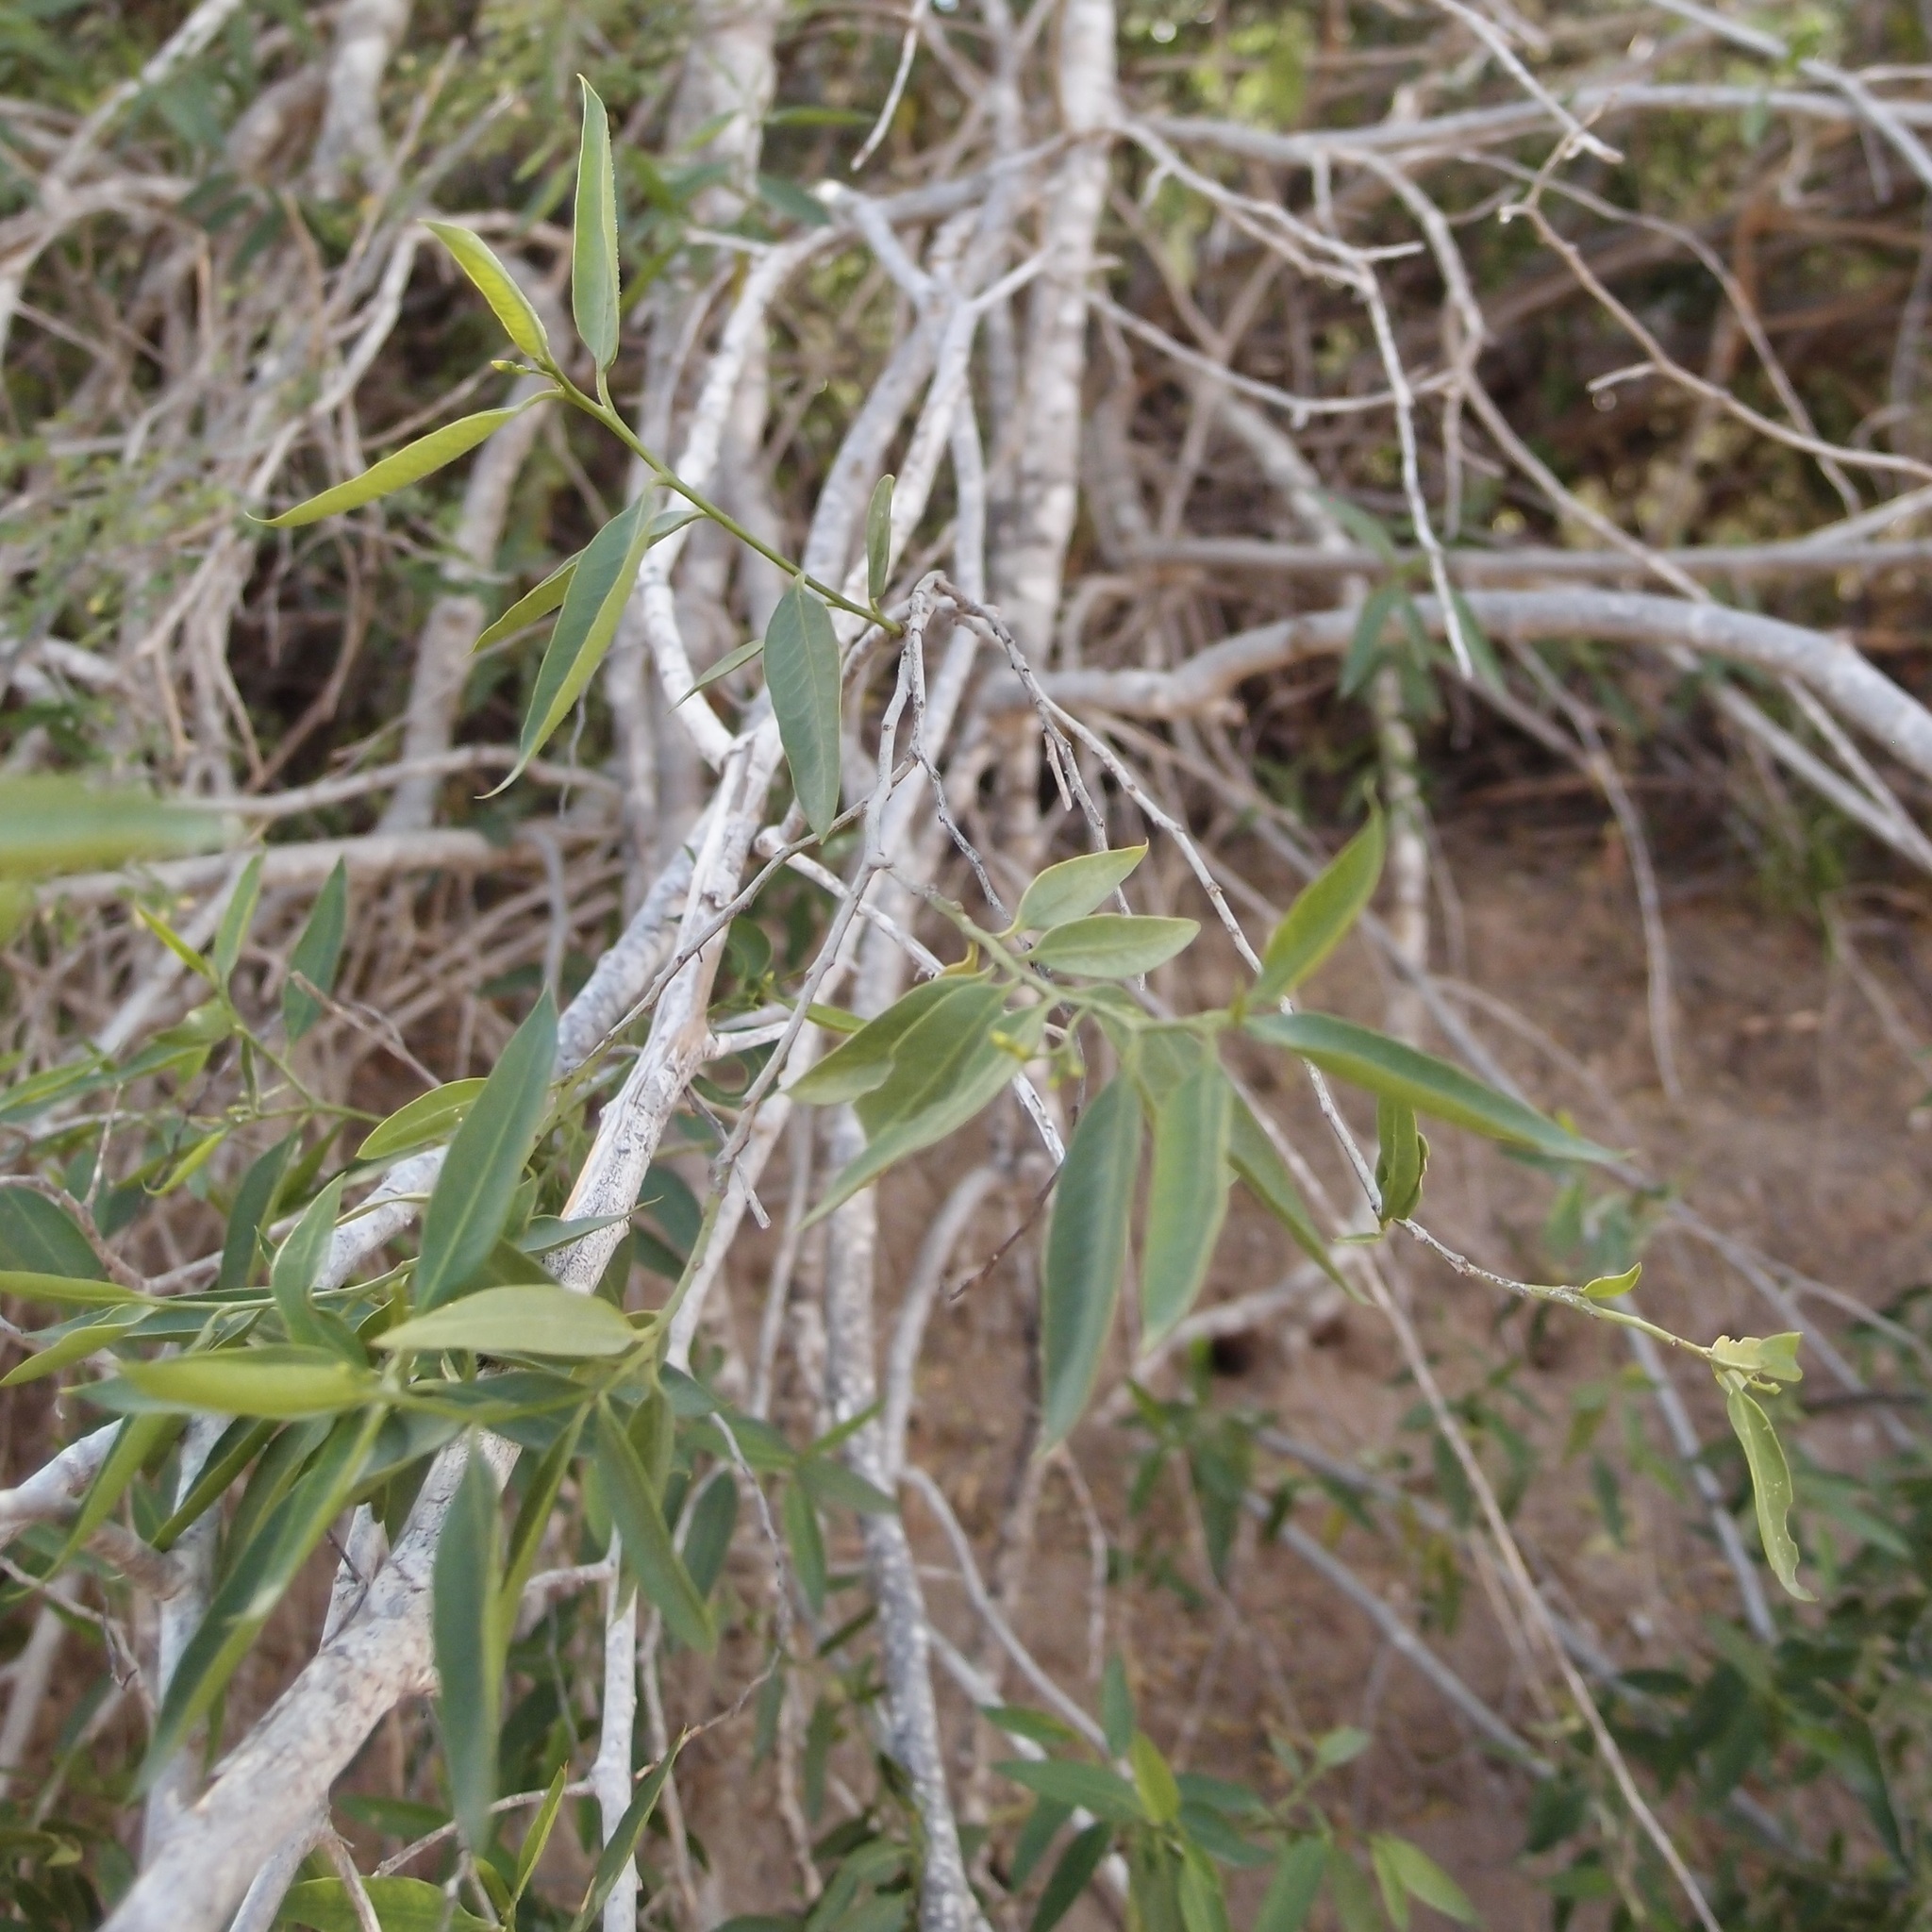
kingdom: Plantae
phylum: Tracheophyta
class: Magnoliopsida
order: Gentianales
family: Apocynaceae
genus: Vallesia
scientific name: Vallesia glabra
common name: Pearlberry
